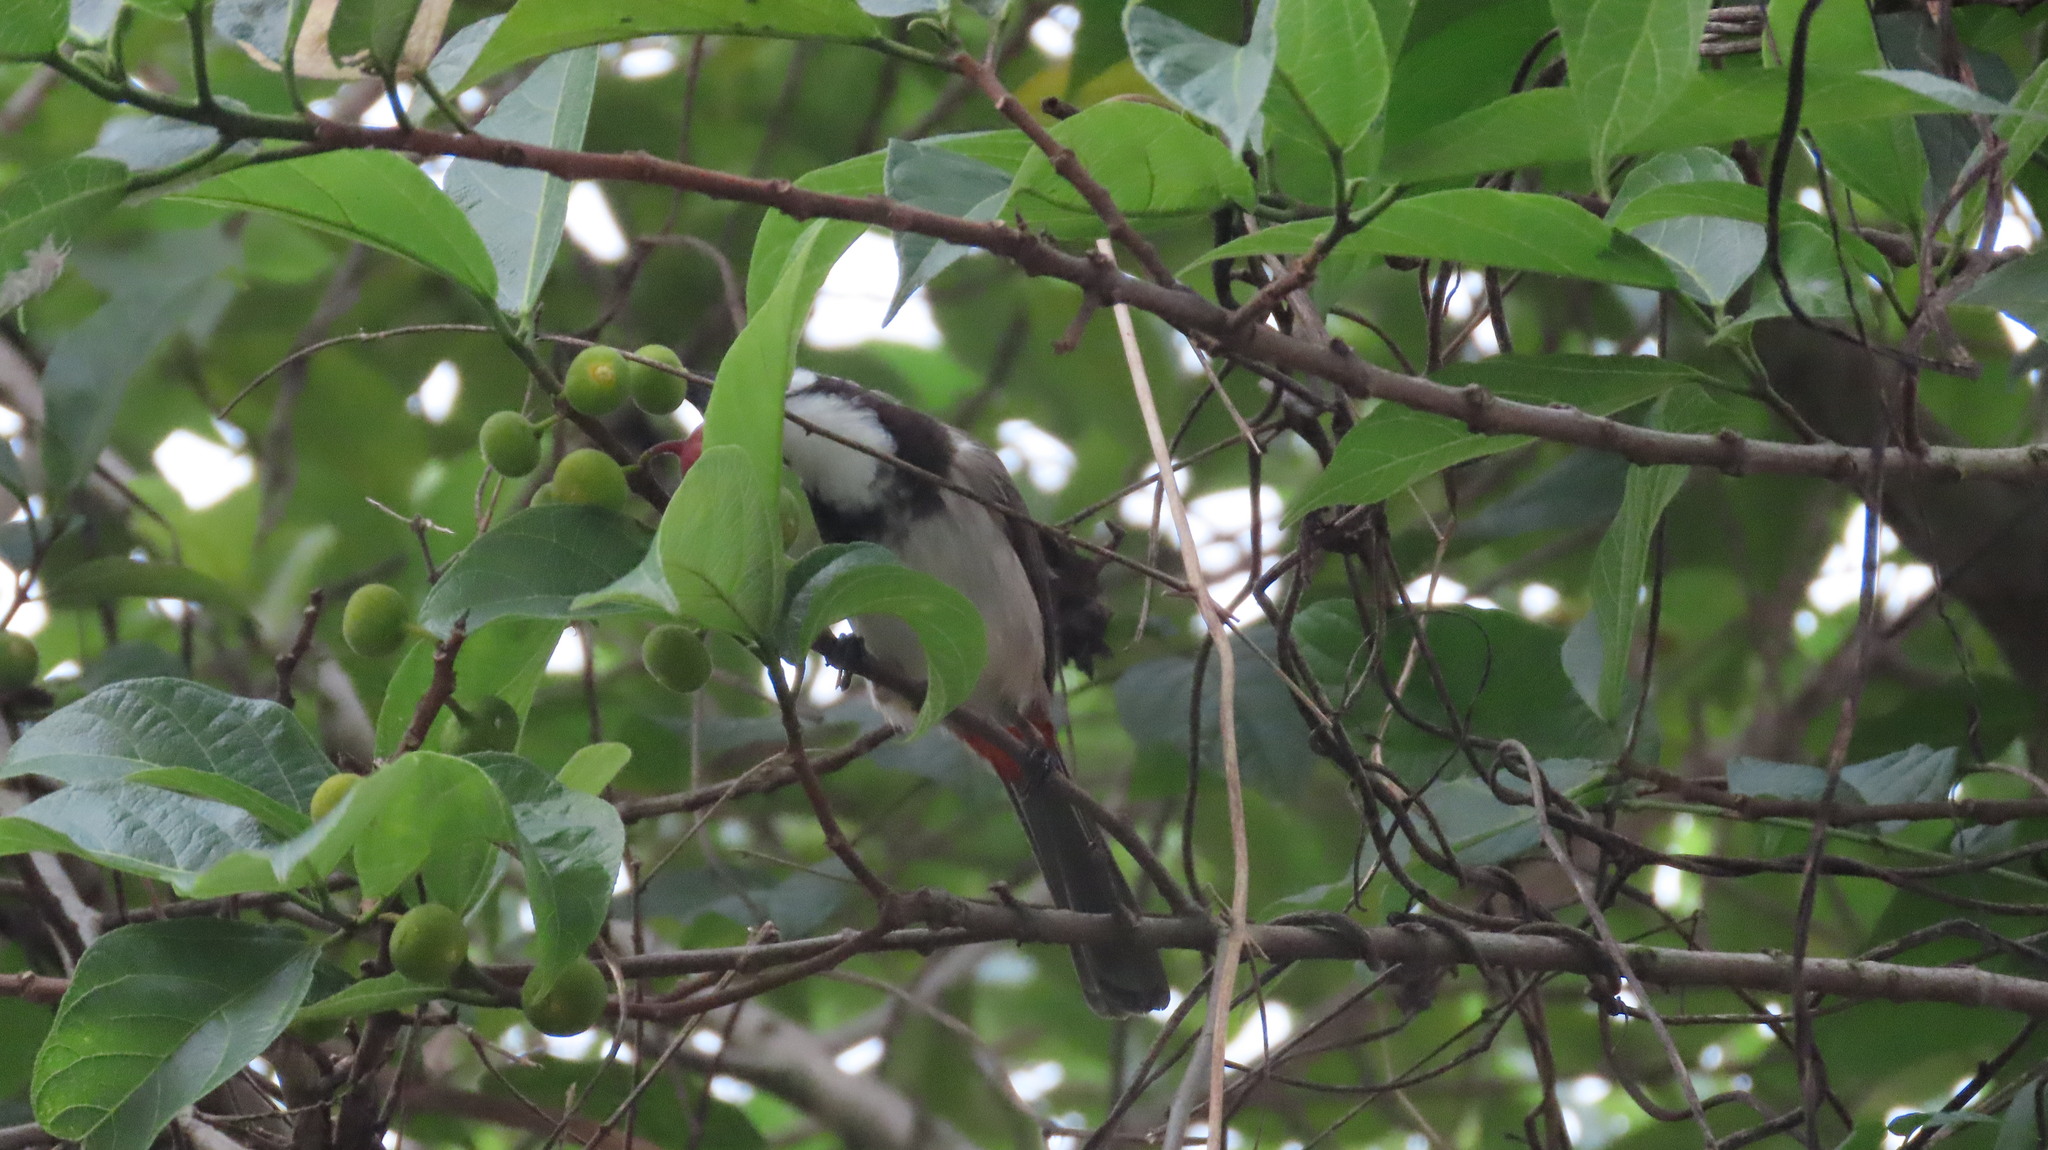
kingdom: Animalia
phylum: Chordata
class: Aves
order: Passeriformes
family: Pycnonotidae
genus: Pycnonotus
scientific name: Pycnonotus jocosus
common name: Red-whiskered bulbul
